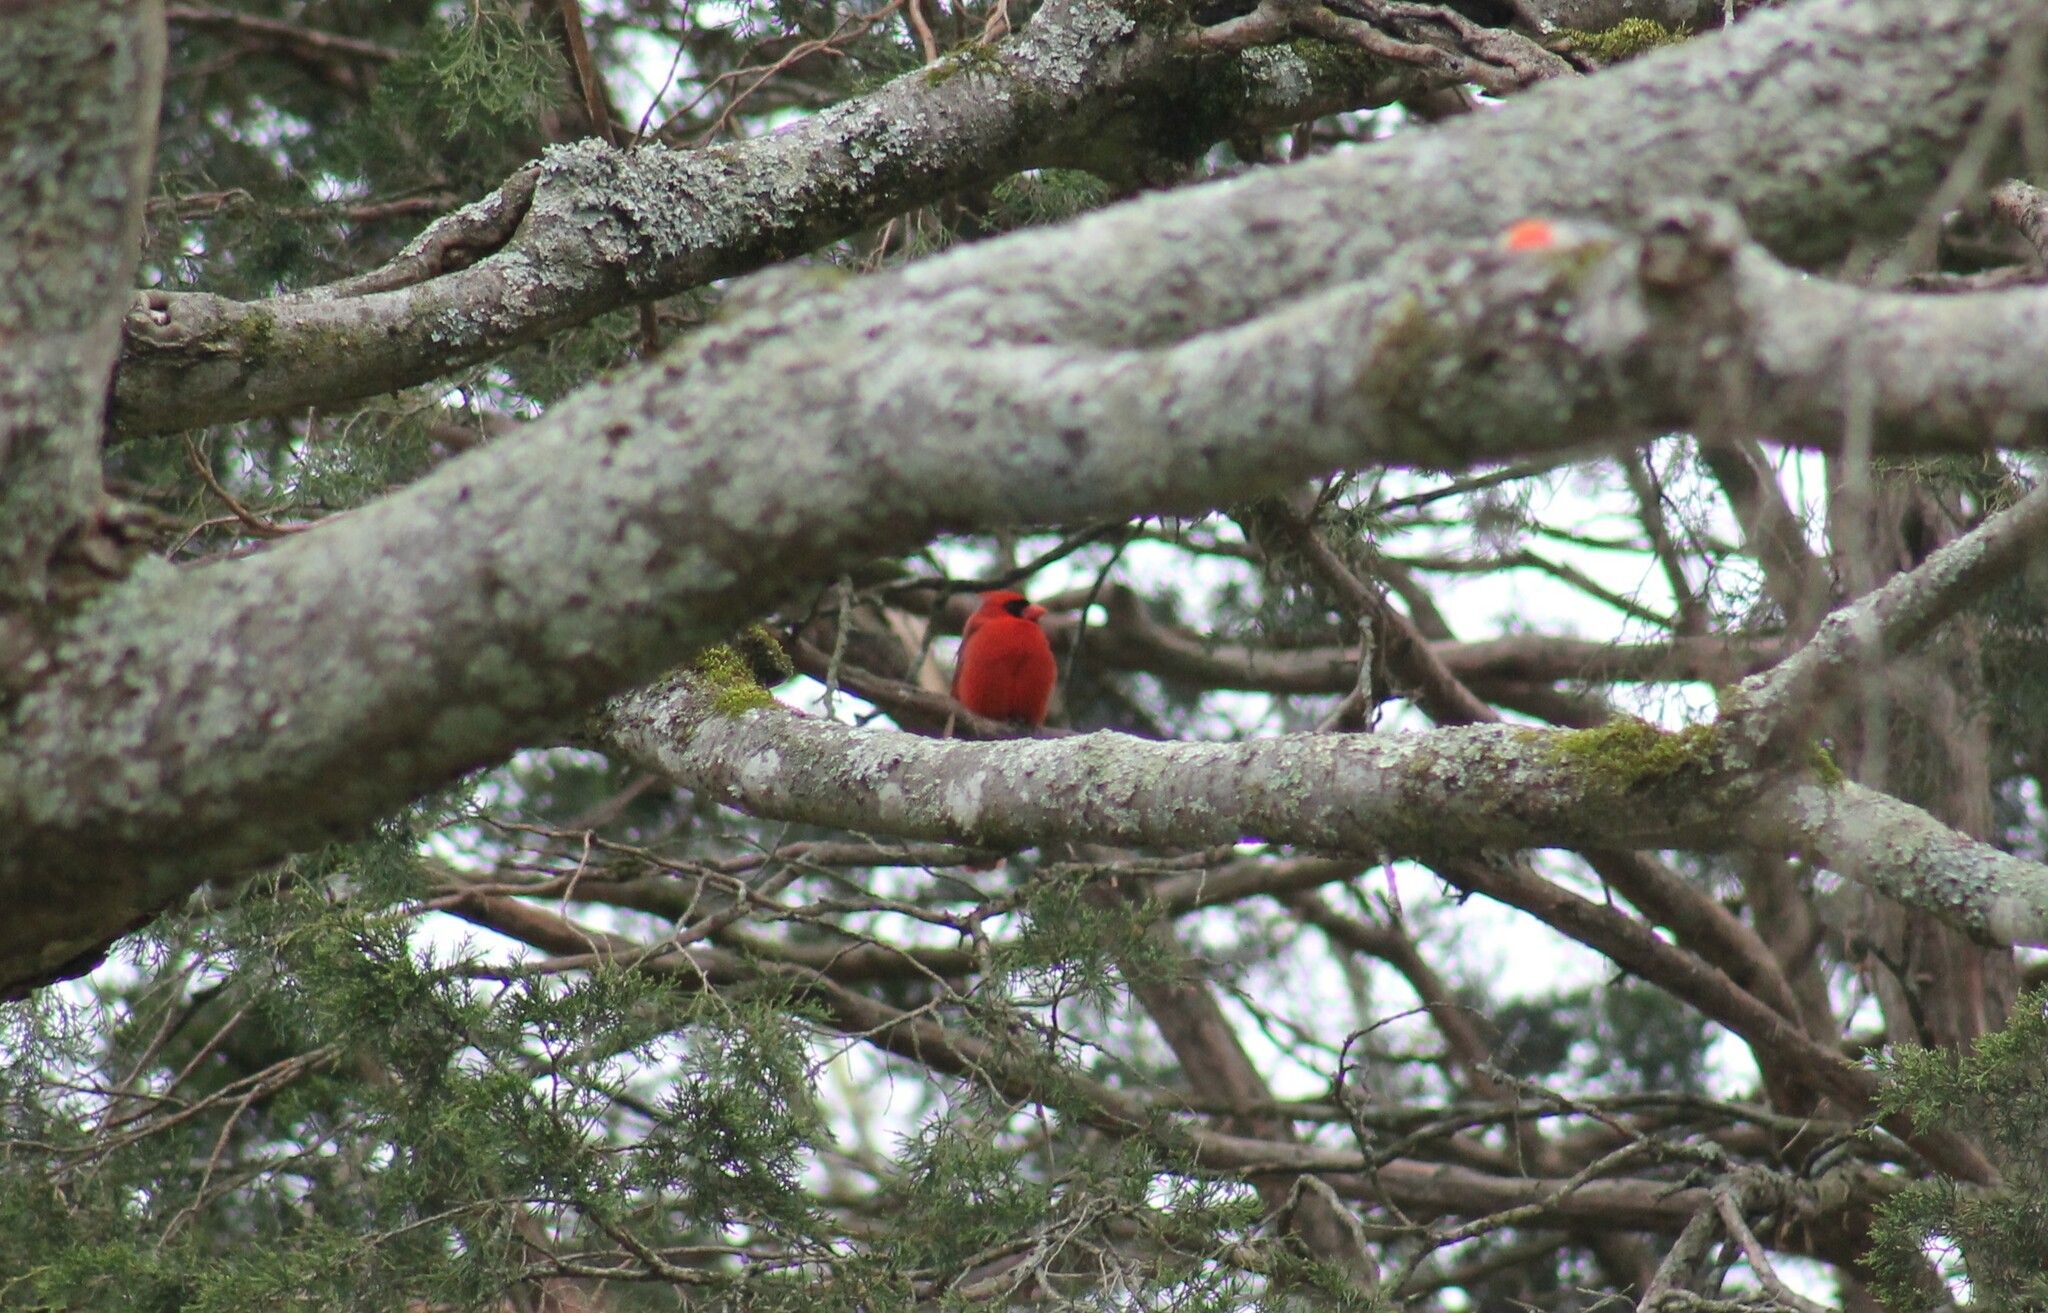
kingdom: Animalia
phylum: Chordata
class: Aves
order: Passeriformes
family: Cardinalidae
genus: Cardinalis
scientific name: Cardinalis cardinalis
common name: Northern cardinal
